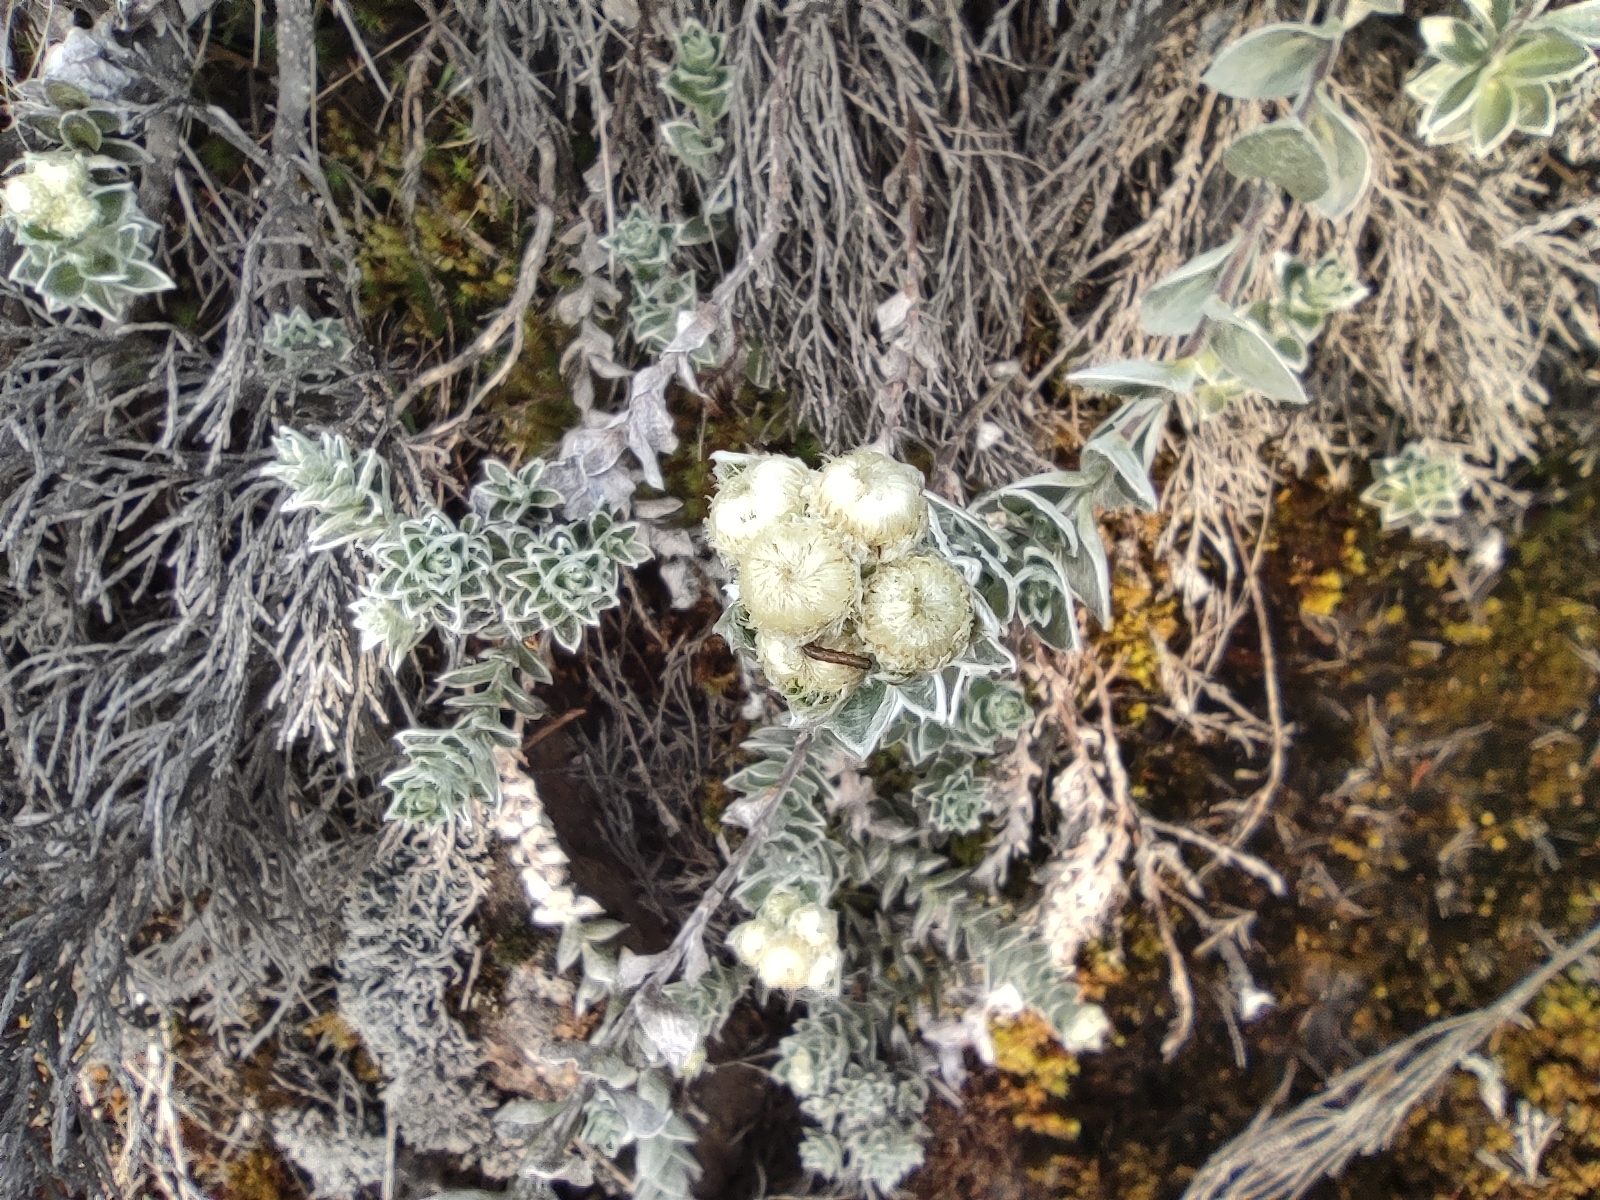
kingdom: Plantae
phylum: Tracheophyta
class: Magnoliopsida
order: Asterales
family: Asteraceae
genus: Psiadia
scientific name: Psiadia argentea
